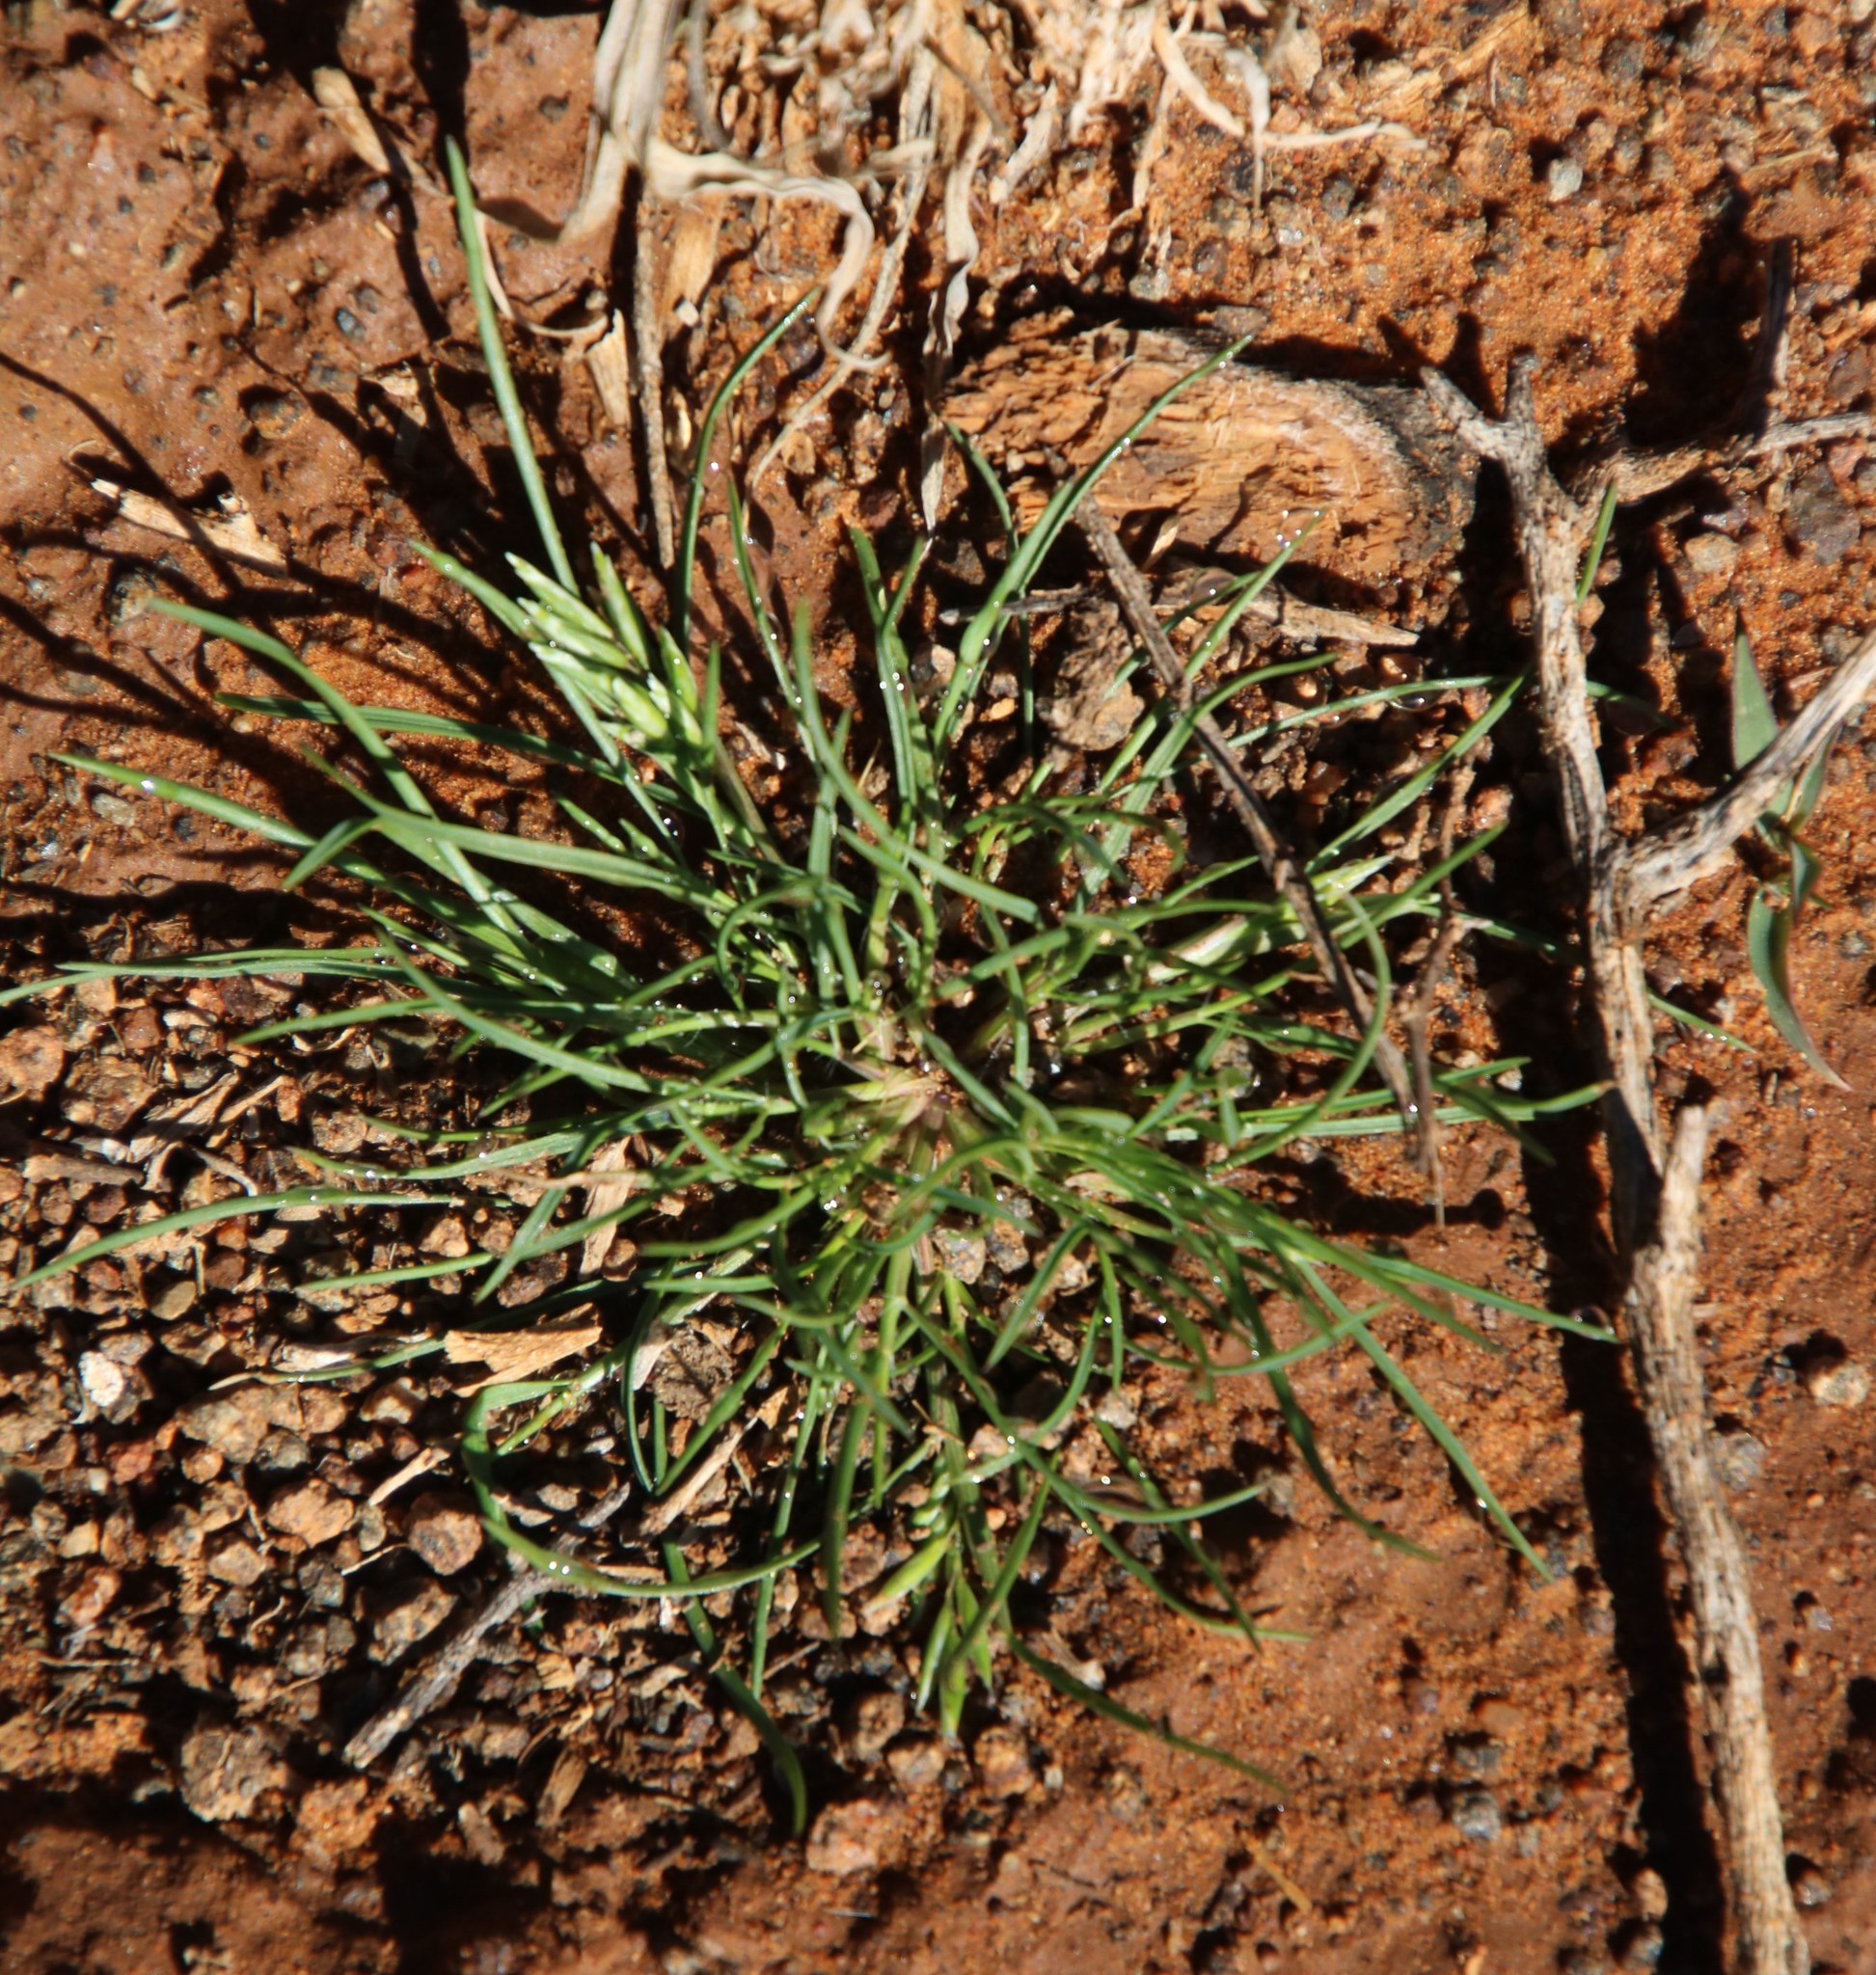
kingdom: Plantae
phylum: Tracheophyta
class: Liliopsida
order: Poales
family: Poaceae
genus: Schismus
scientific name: Schismus barbatus
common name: Kelch-grass
